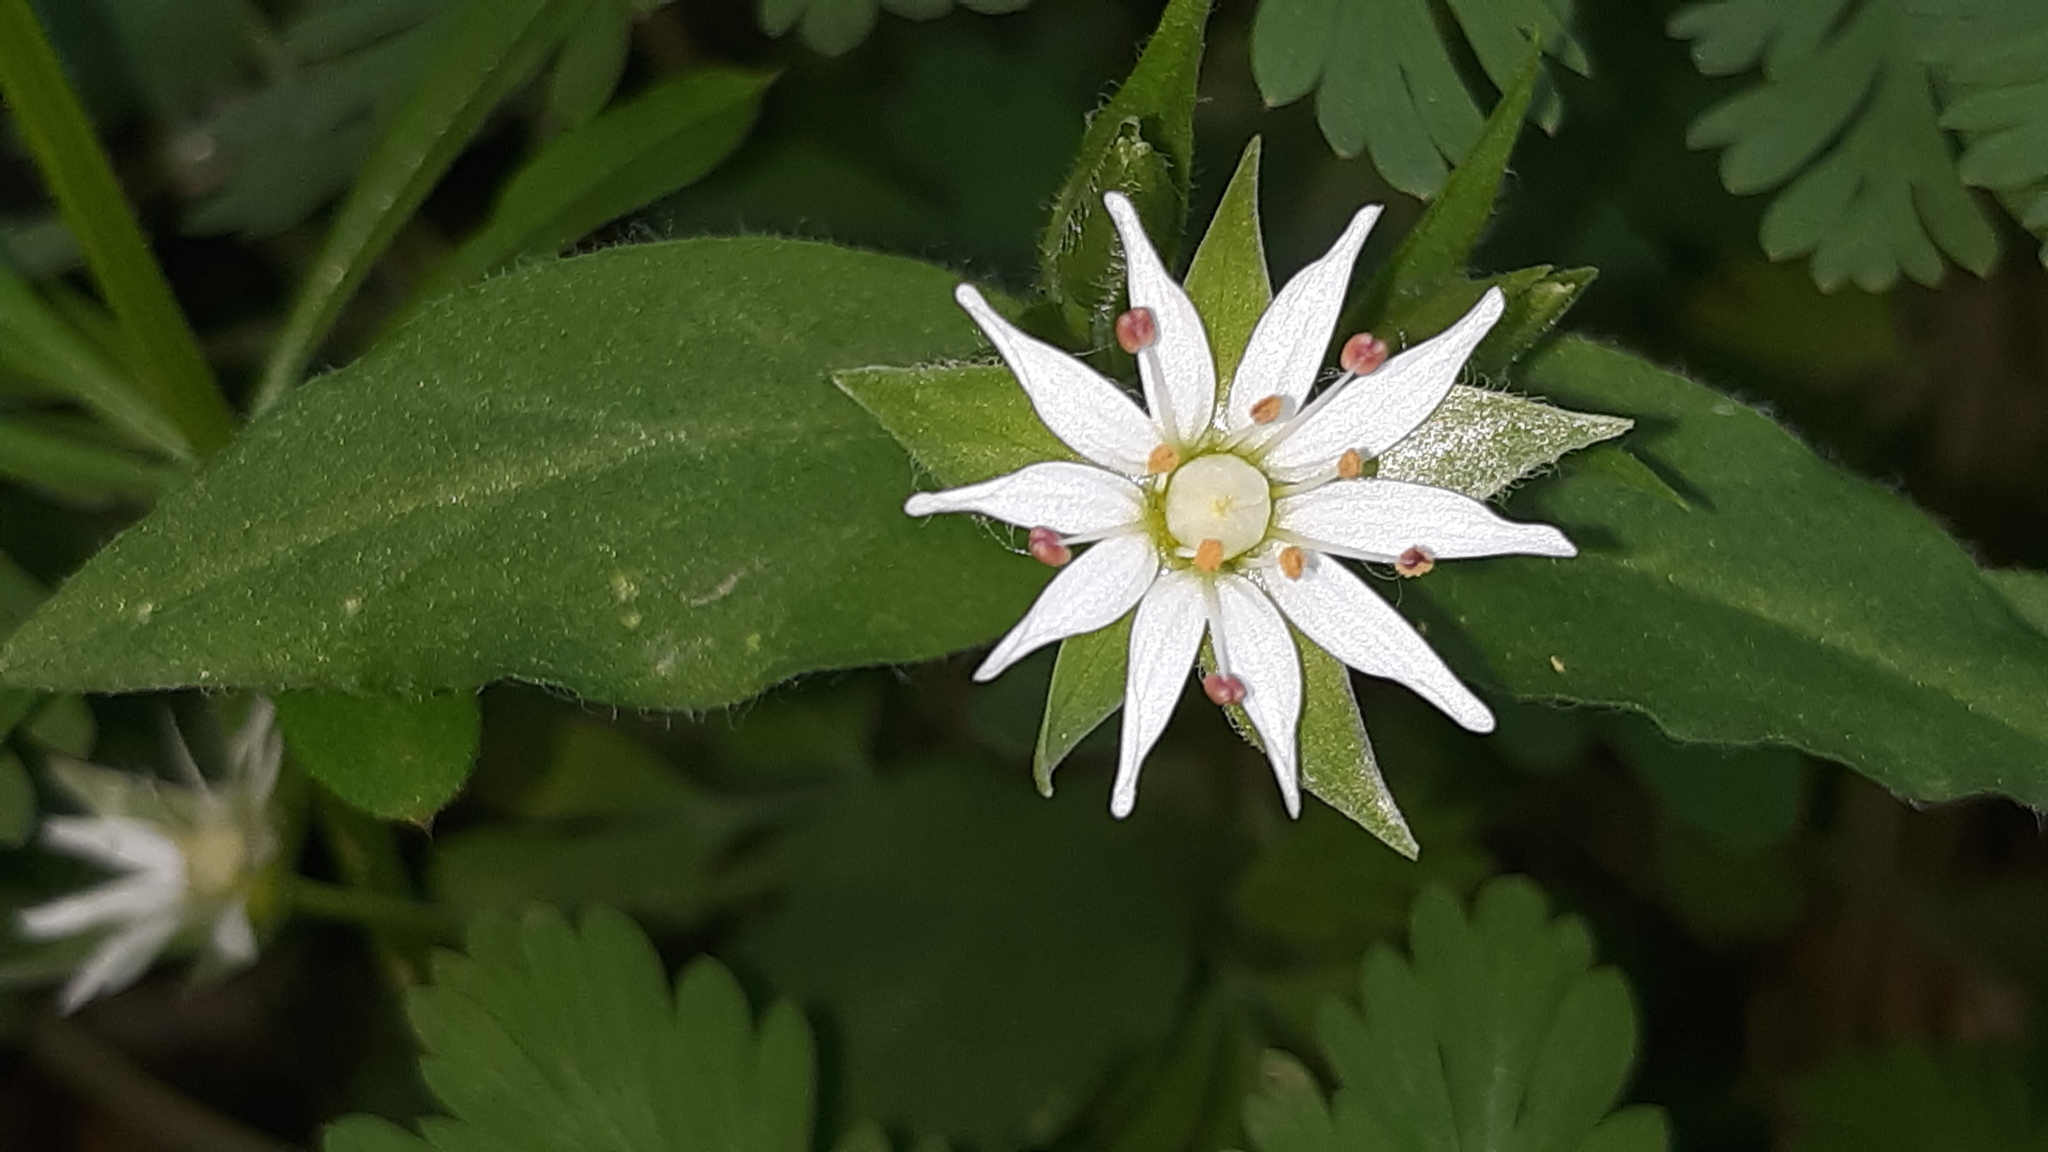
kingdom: Plantae
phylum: Tracheophyta
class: Magnoliopsida
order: Caryophyllales
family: Caryophyllaceae
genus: Stellaria
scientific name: Stellaria corei
